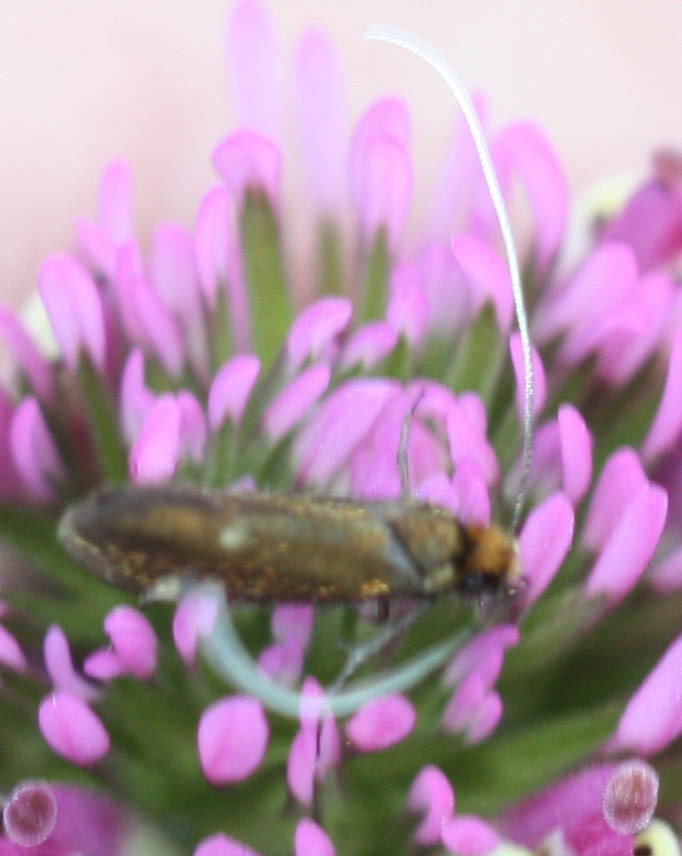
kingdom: Animalia
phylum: Arthropoda
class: Insecta
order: Lepidoptera
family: Adelidae
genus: Adela
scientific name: Adela flammeusella
